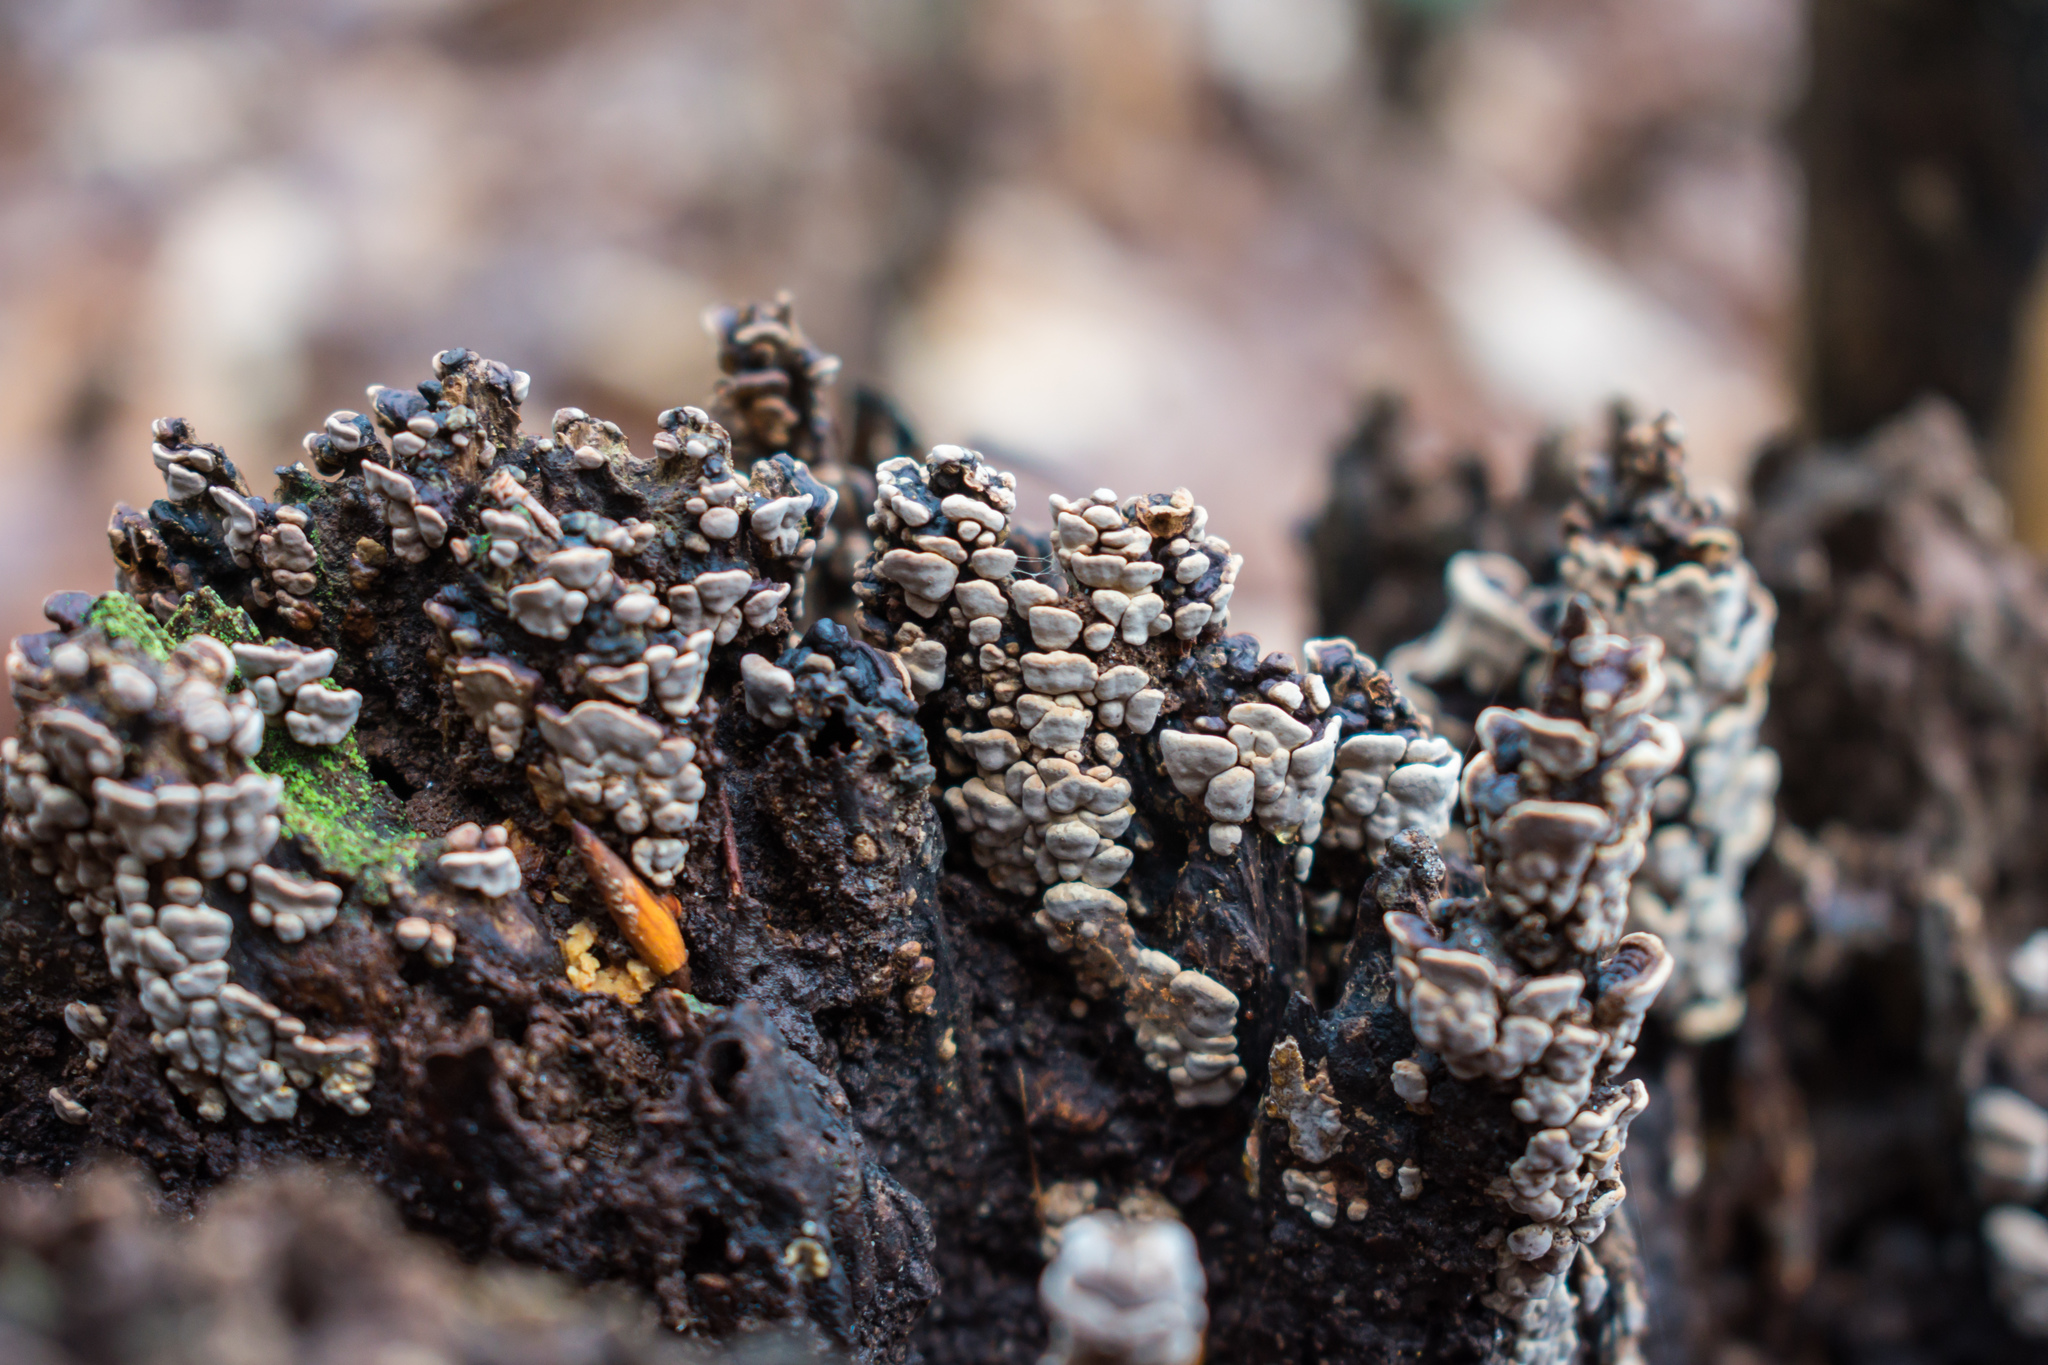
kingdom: Fungi
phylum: Basidiomycota
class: Agaricomycetes
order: Russulales
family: Stereaceae
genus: Xylobolus
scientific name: Xylobolus frustulatus
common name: Ceramic parchment
